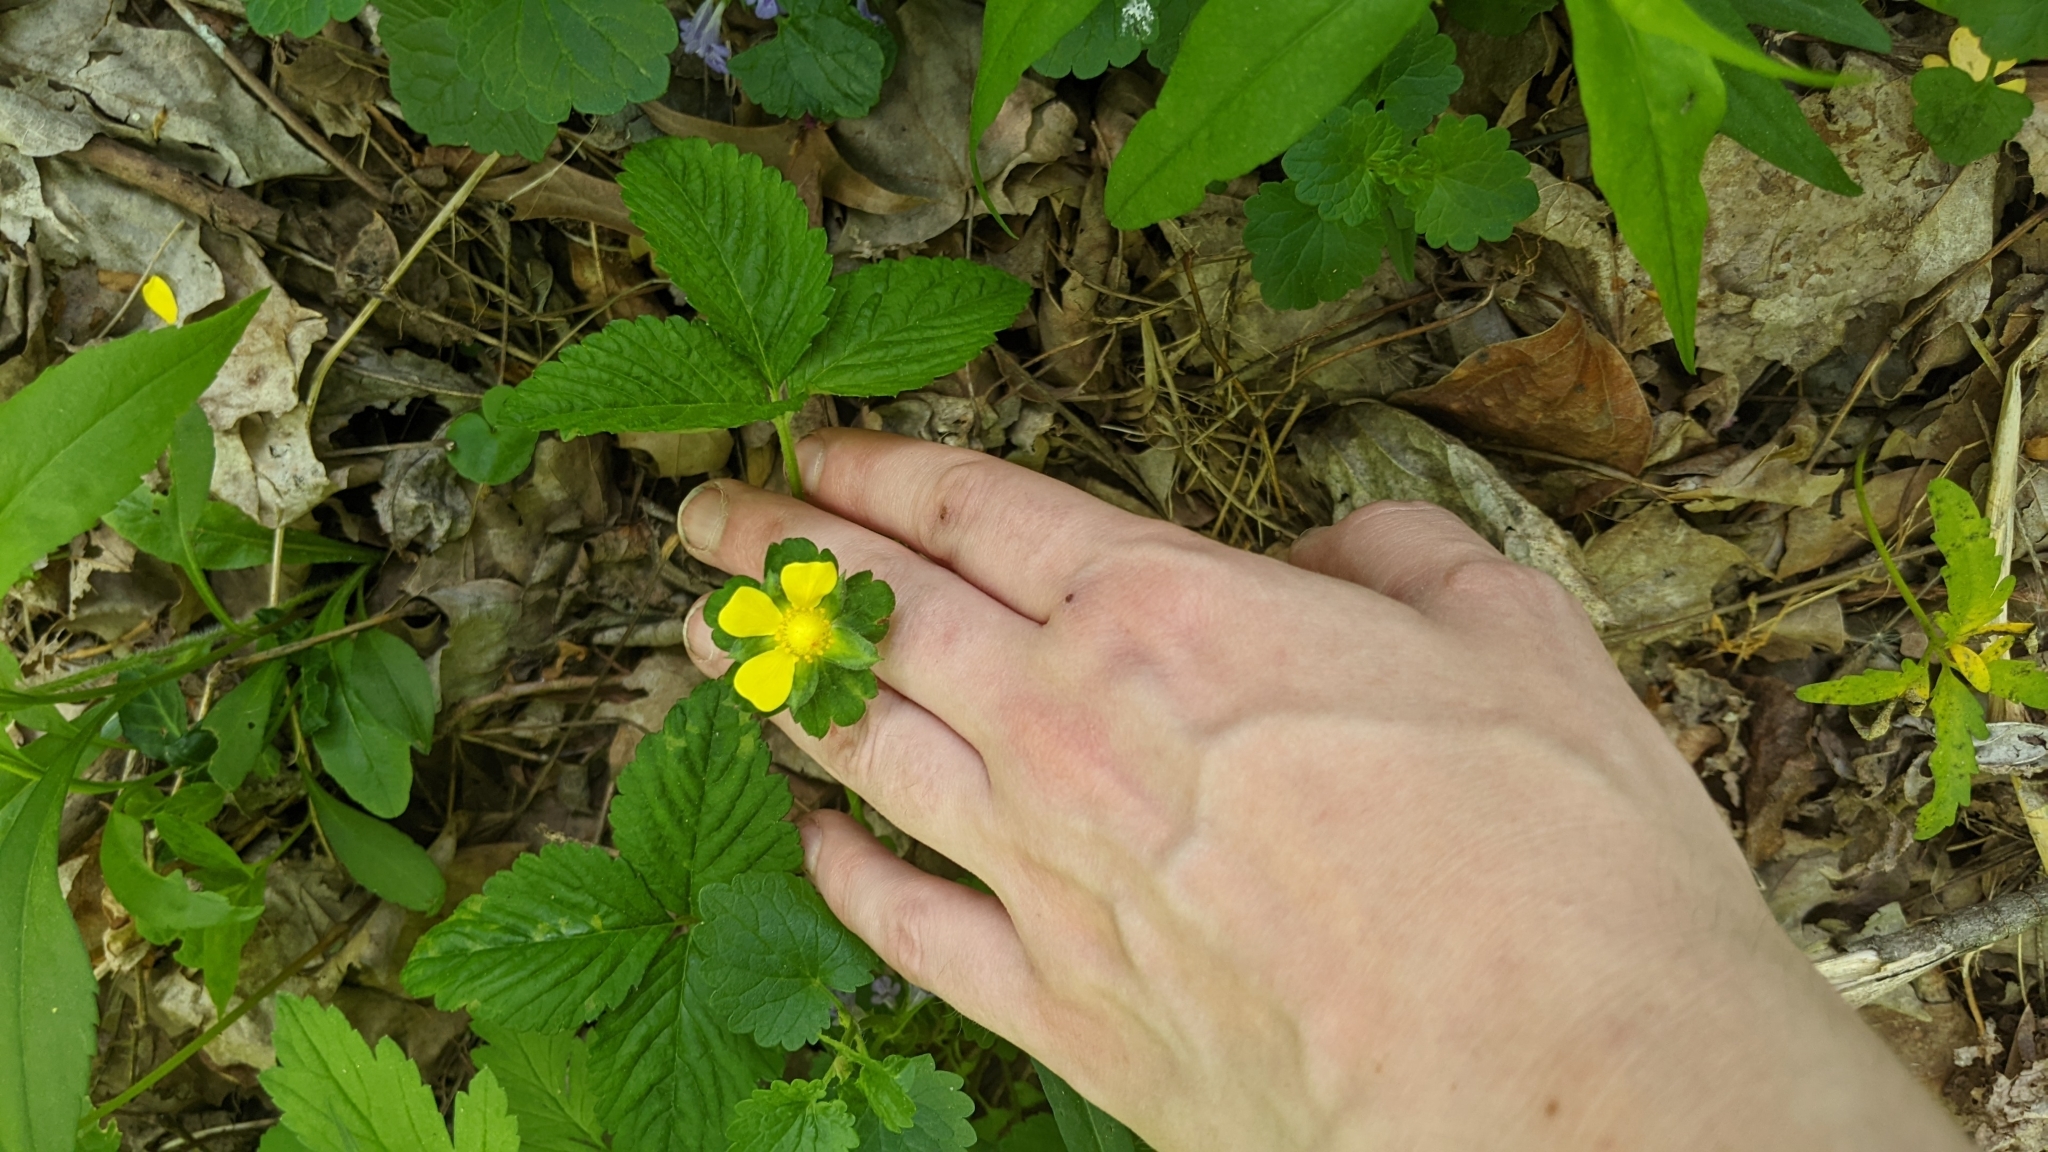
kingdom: Plantae
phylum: Tracheophyta
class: Magnoliopsida
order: Rosales
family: Rosaceae
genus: Potentilla
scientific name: Potentilla indica
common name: Yellow-flowered strawberry
